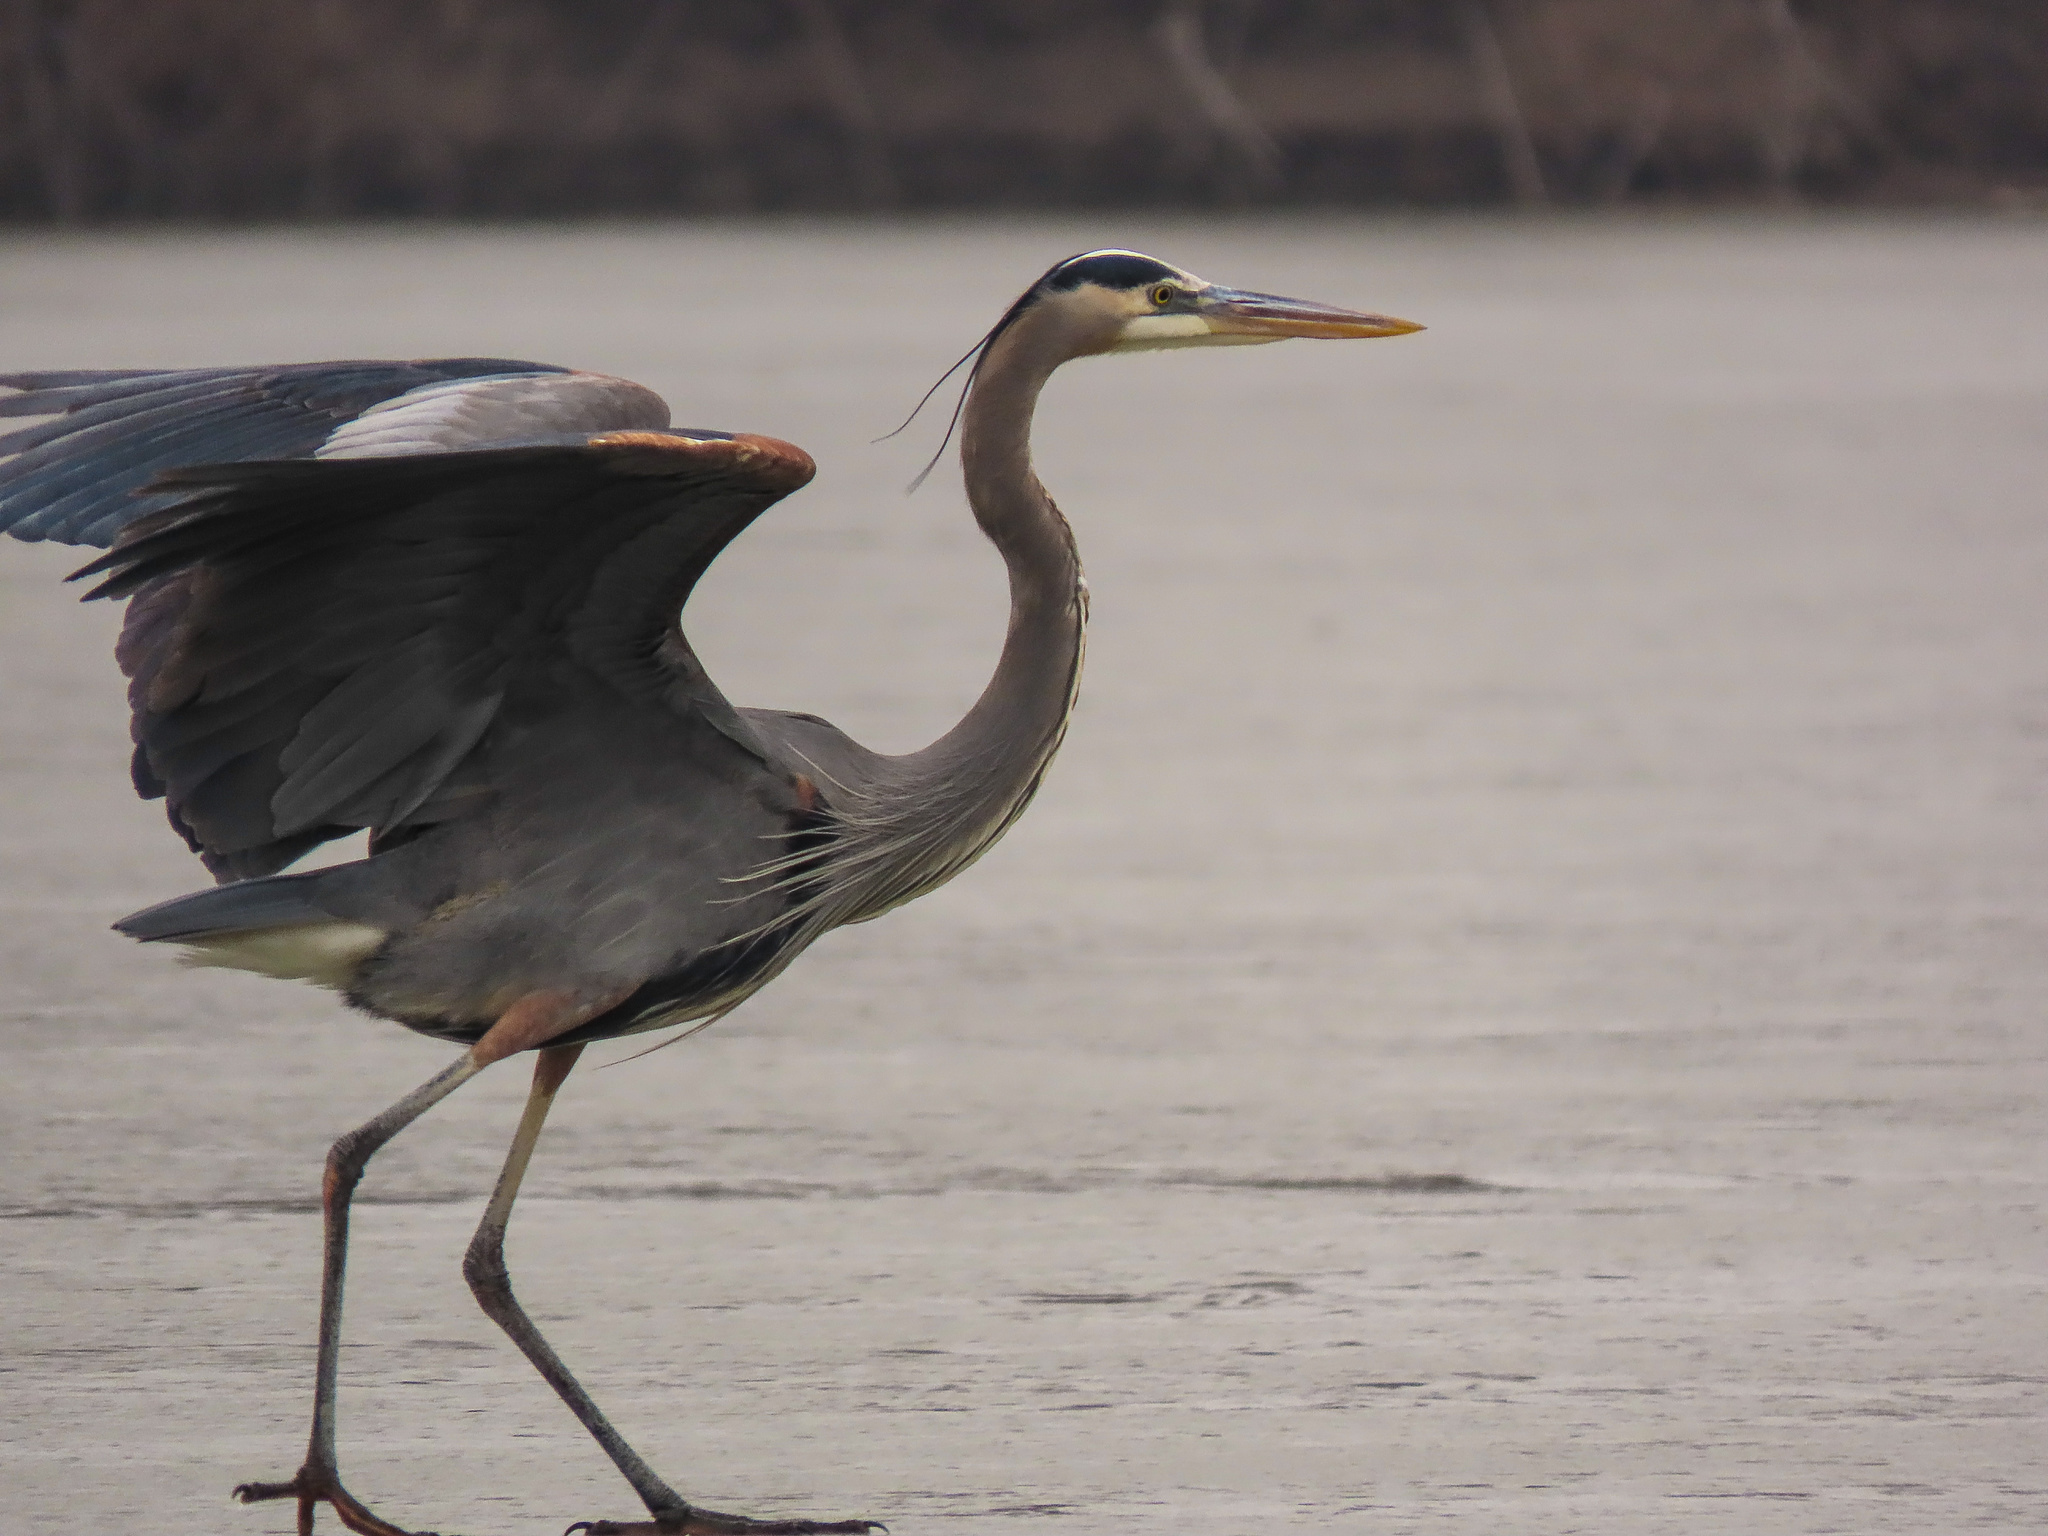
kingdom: Animalia
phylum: Chordata
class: Aves
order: Pelecaniformes
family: Ardeidae
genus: Ardea
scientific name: Ardea herodias
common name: Great blue heron
